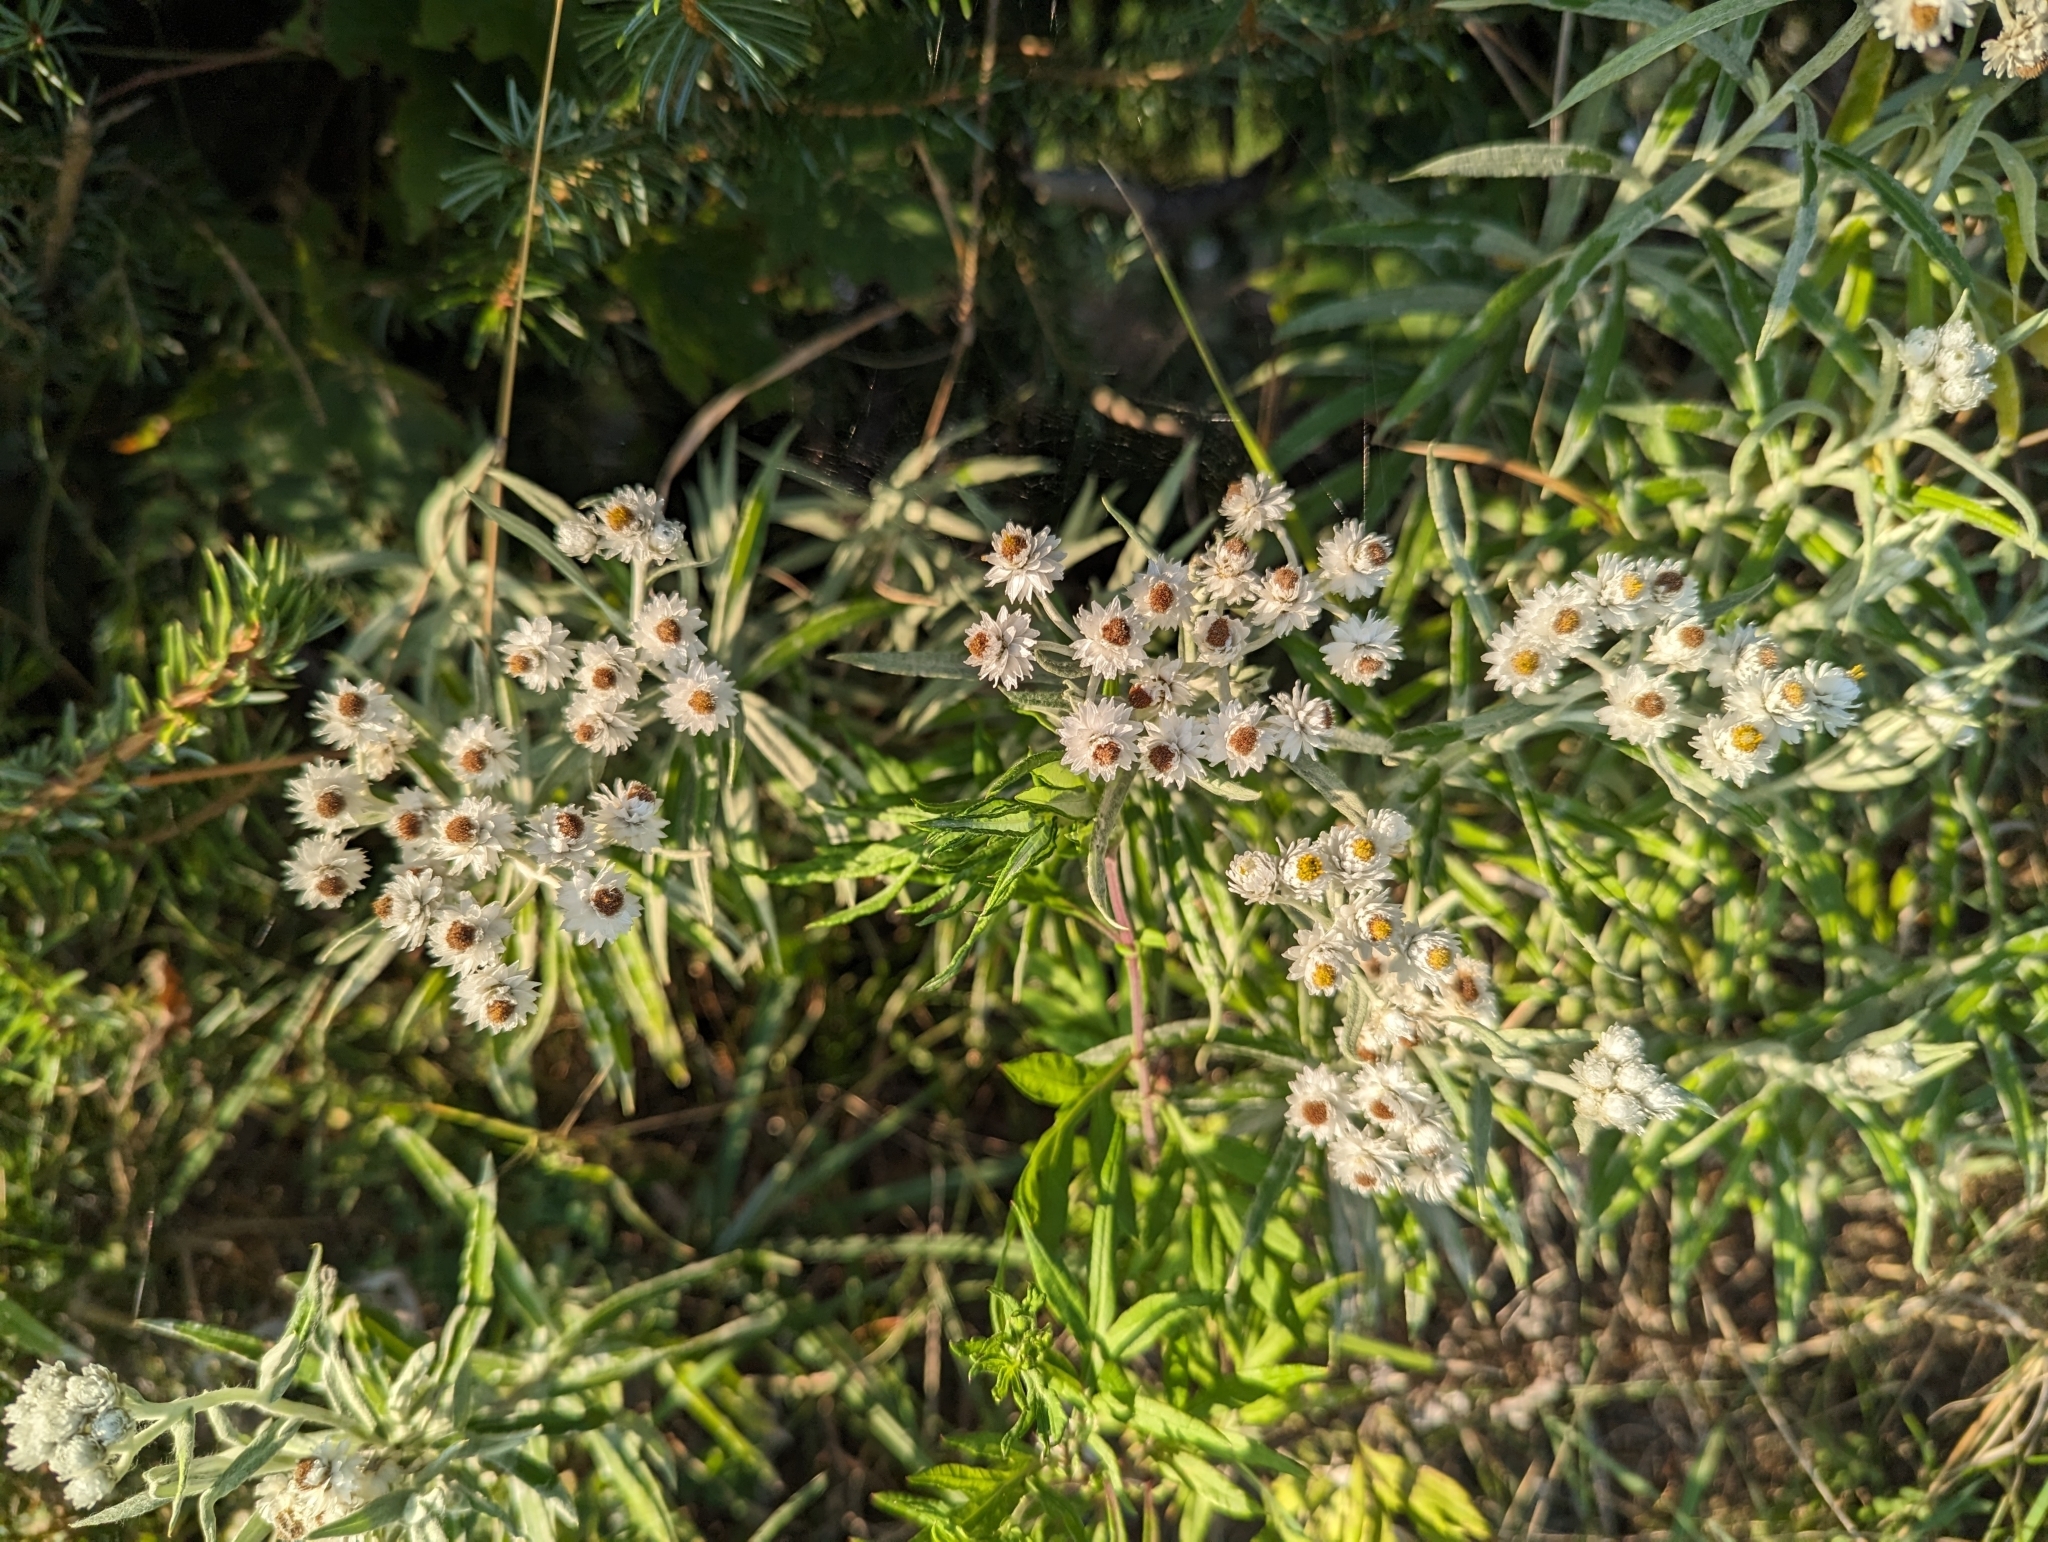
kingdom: Plantae
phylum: Tracheophyta
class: Magnoliopsida
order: Asterales
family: Asteraceae
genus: Anaphalis
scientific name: Anaphalis margaritacea
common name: Pearly everlasting
